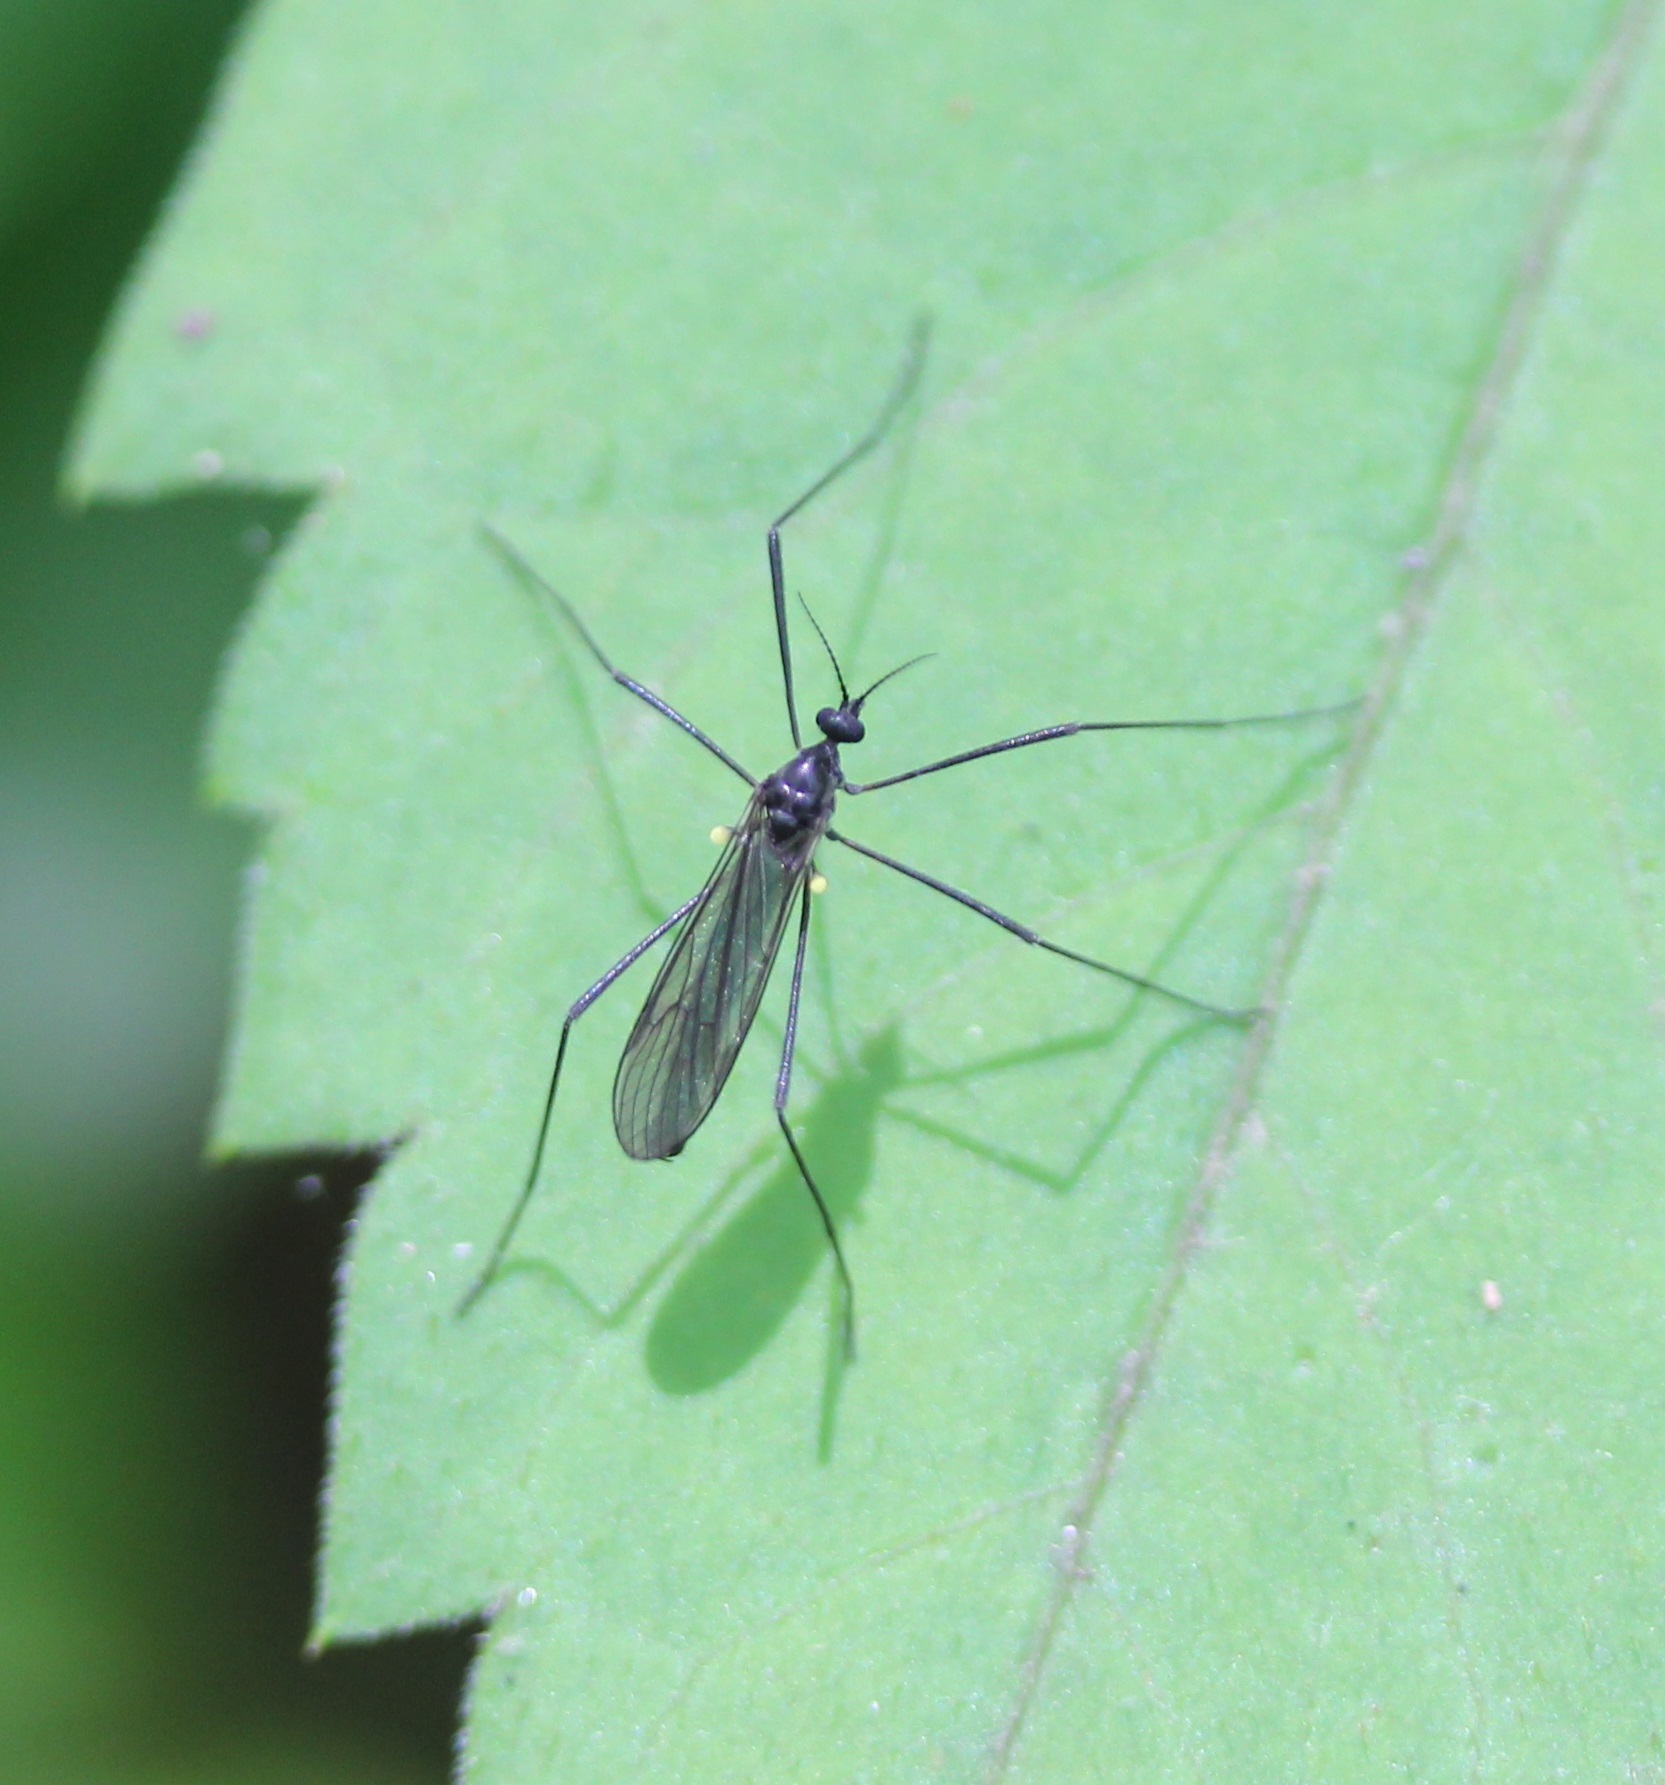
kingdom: Animalia
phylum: Arthropoda
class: Insecta
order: Diptera
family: Limoniidae
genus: Gnophomyia
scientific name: Gnophomyia tristissima
